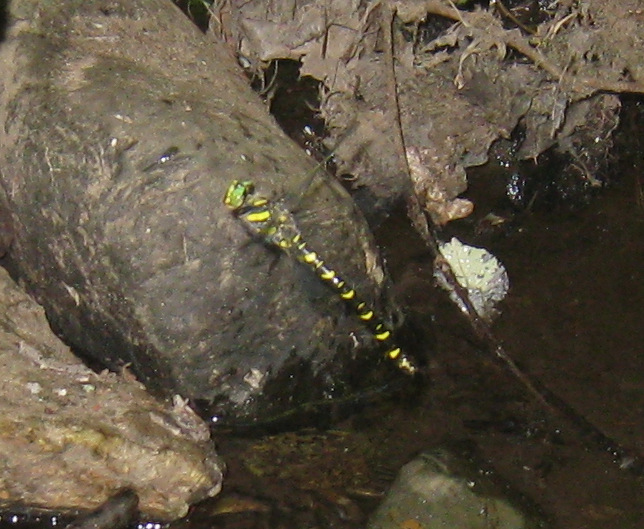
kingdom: Animalia
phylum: Arthropoda
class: Insecta
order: Odonata
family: Cordulegastridae
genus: Cordulegaster
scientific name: Cordulegaster boltonii
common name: Golden-ringed dragonfly
